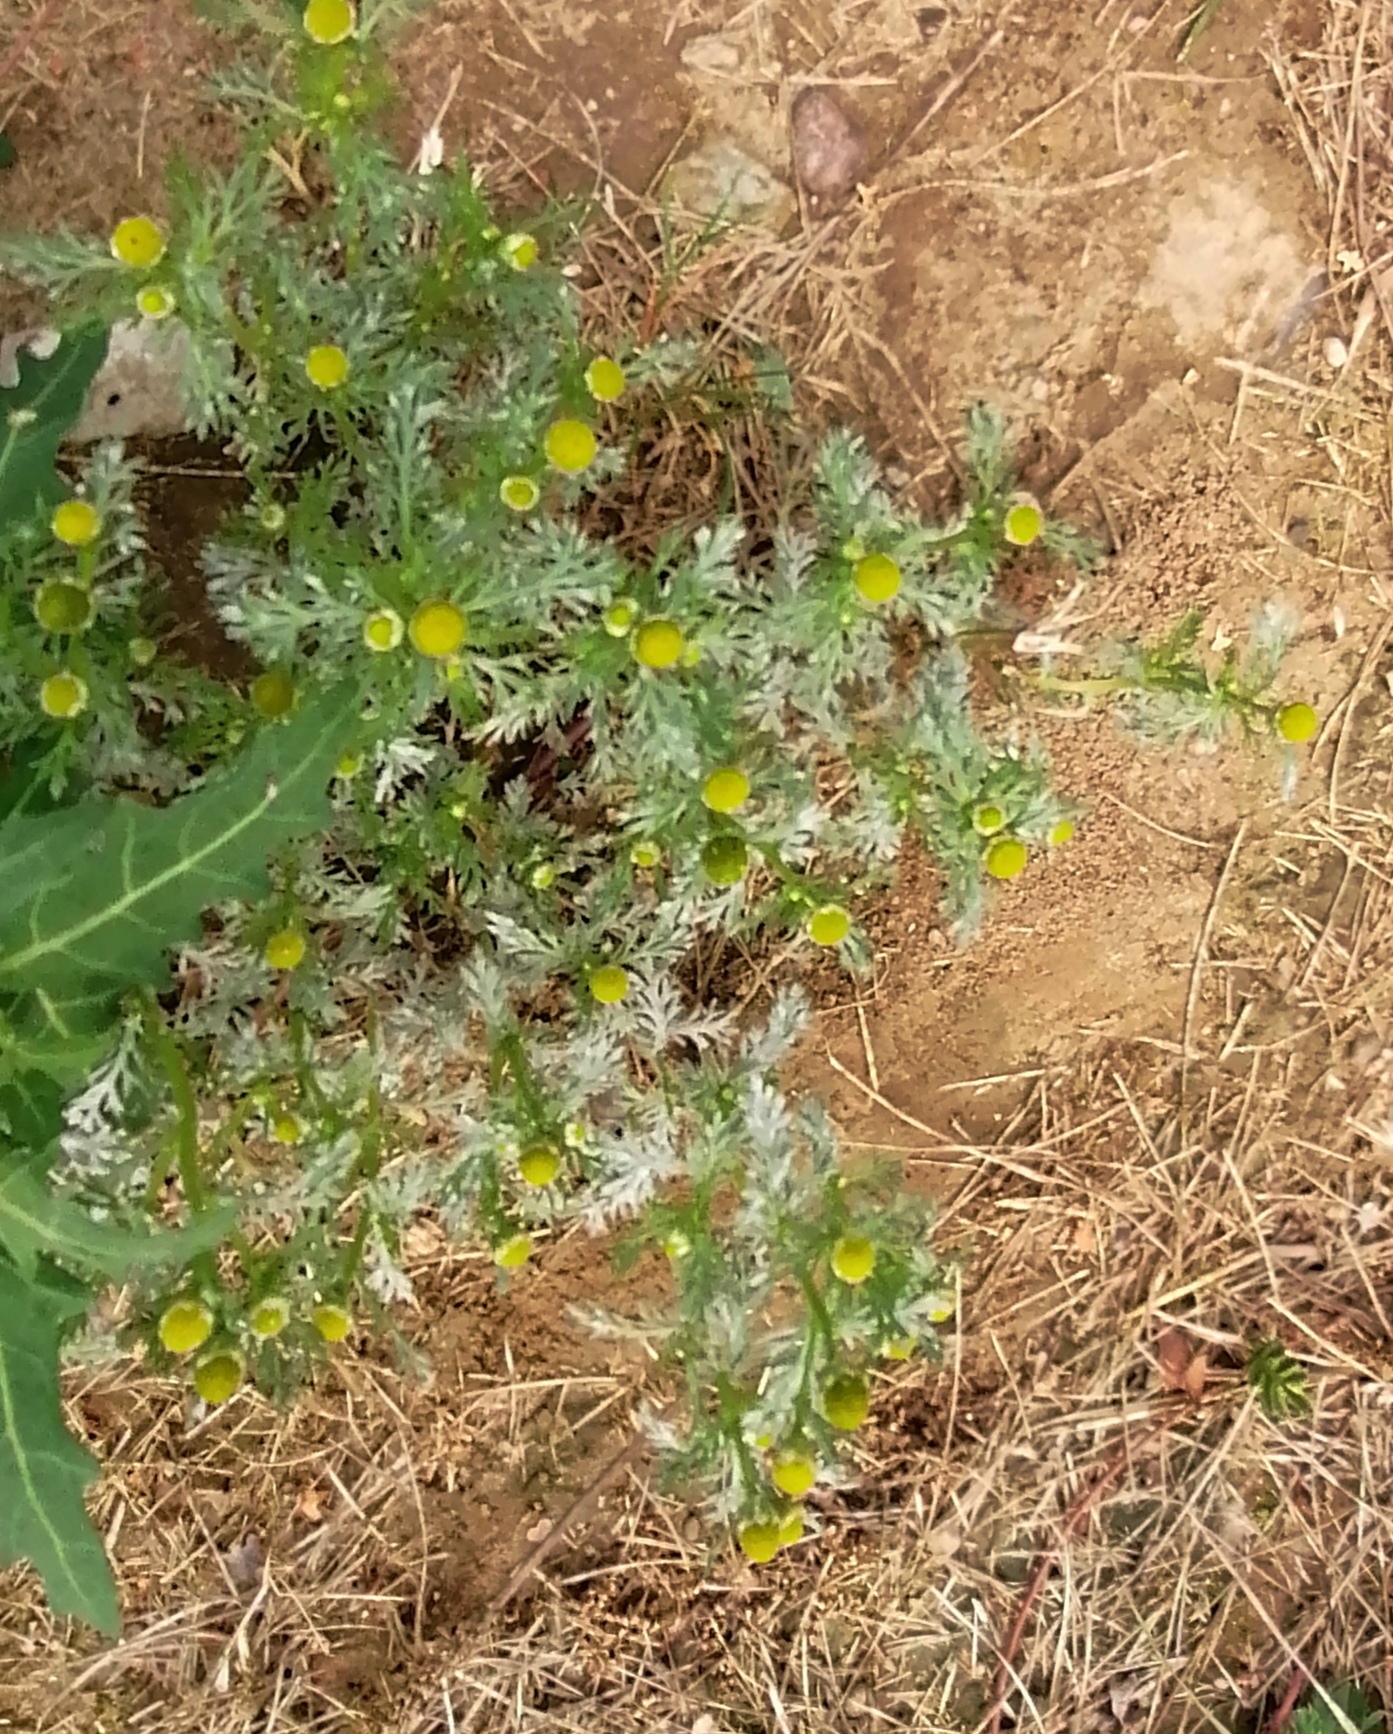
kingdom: Plantae
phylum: Tracheophyta
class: Magnoliopsida
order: Asterales
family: Asteraceae
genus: Matricaria
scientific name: Matricaria discoidea
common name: Disc mayweed
